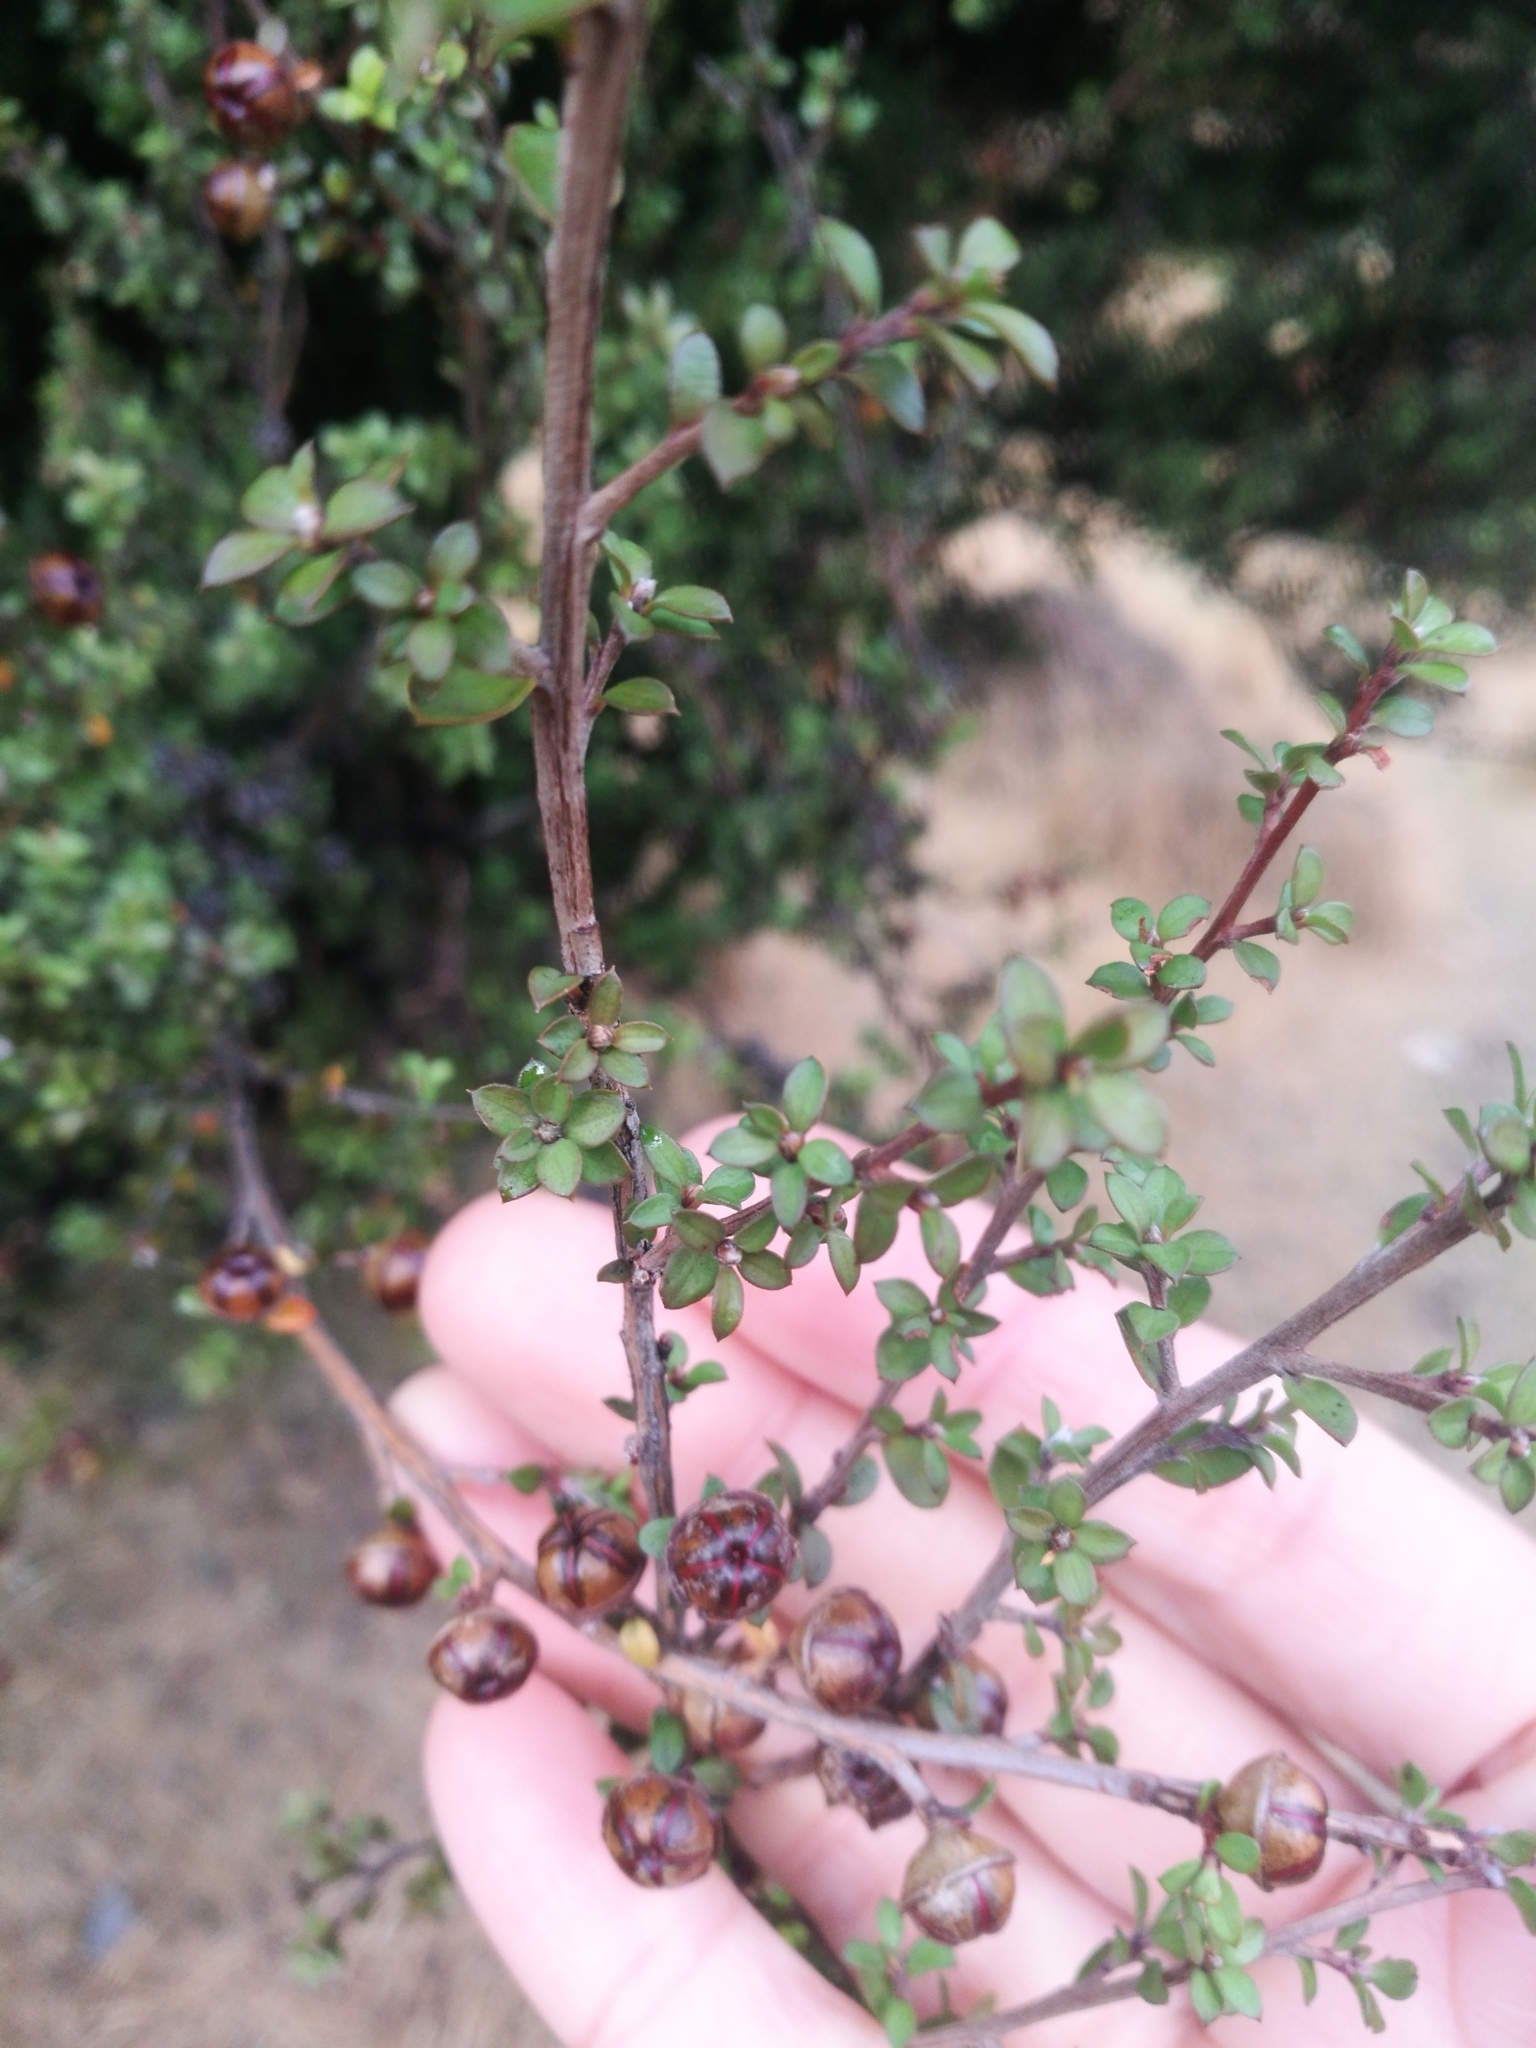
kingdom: Plantae
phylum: Tracheophyta
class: Magnoliopsida
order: Myrtales
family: Myrtaceae
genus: Leptospermum
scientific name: Leptospermum scoparium
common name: Broom tea-tree
